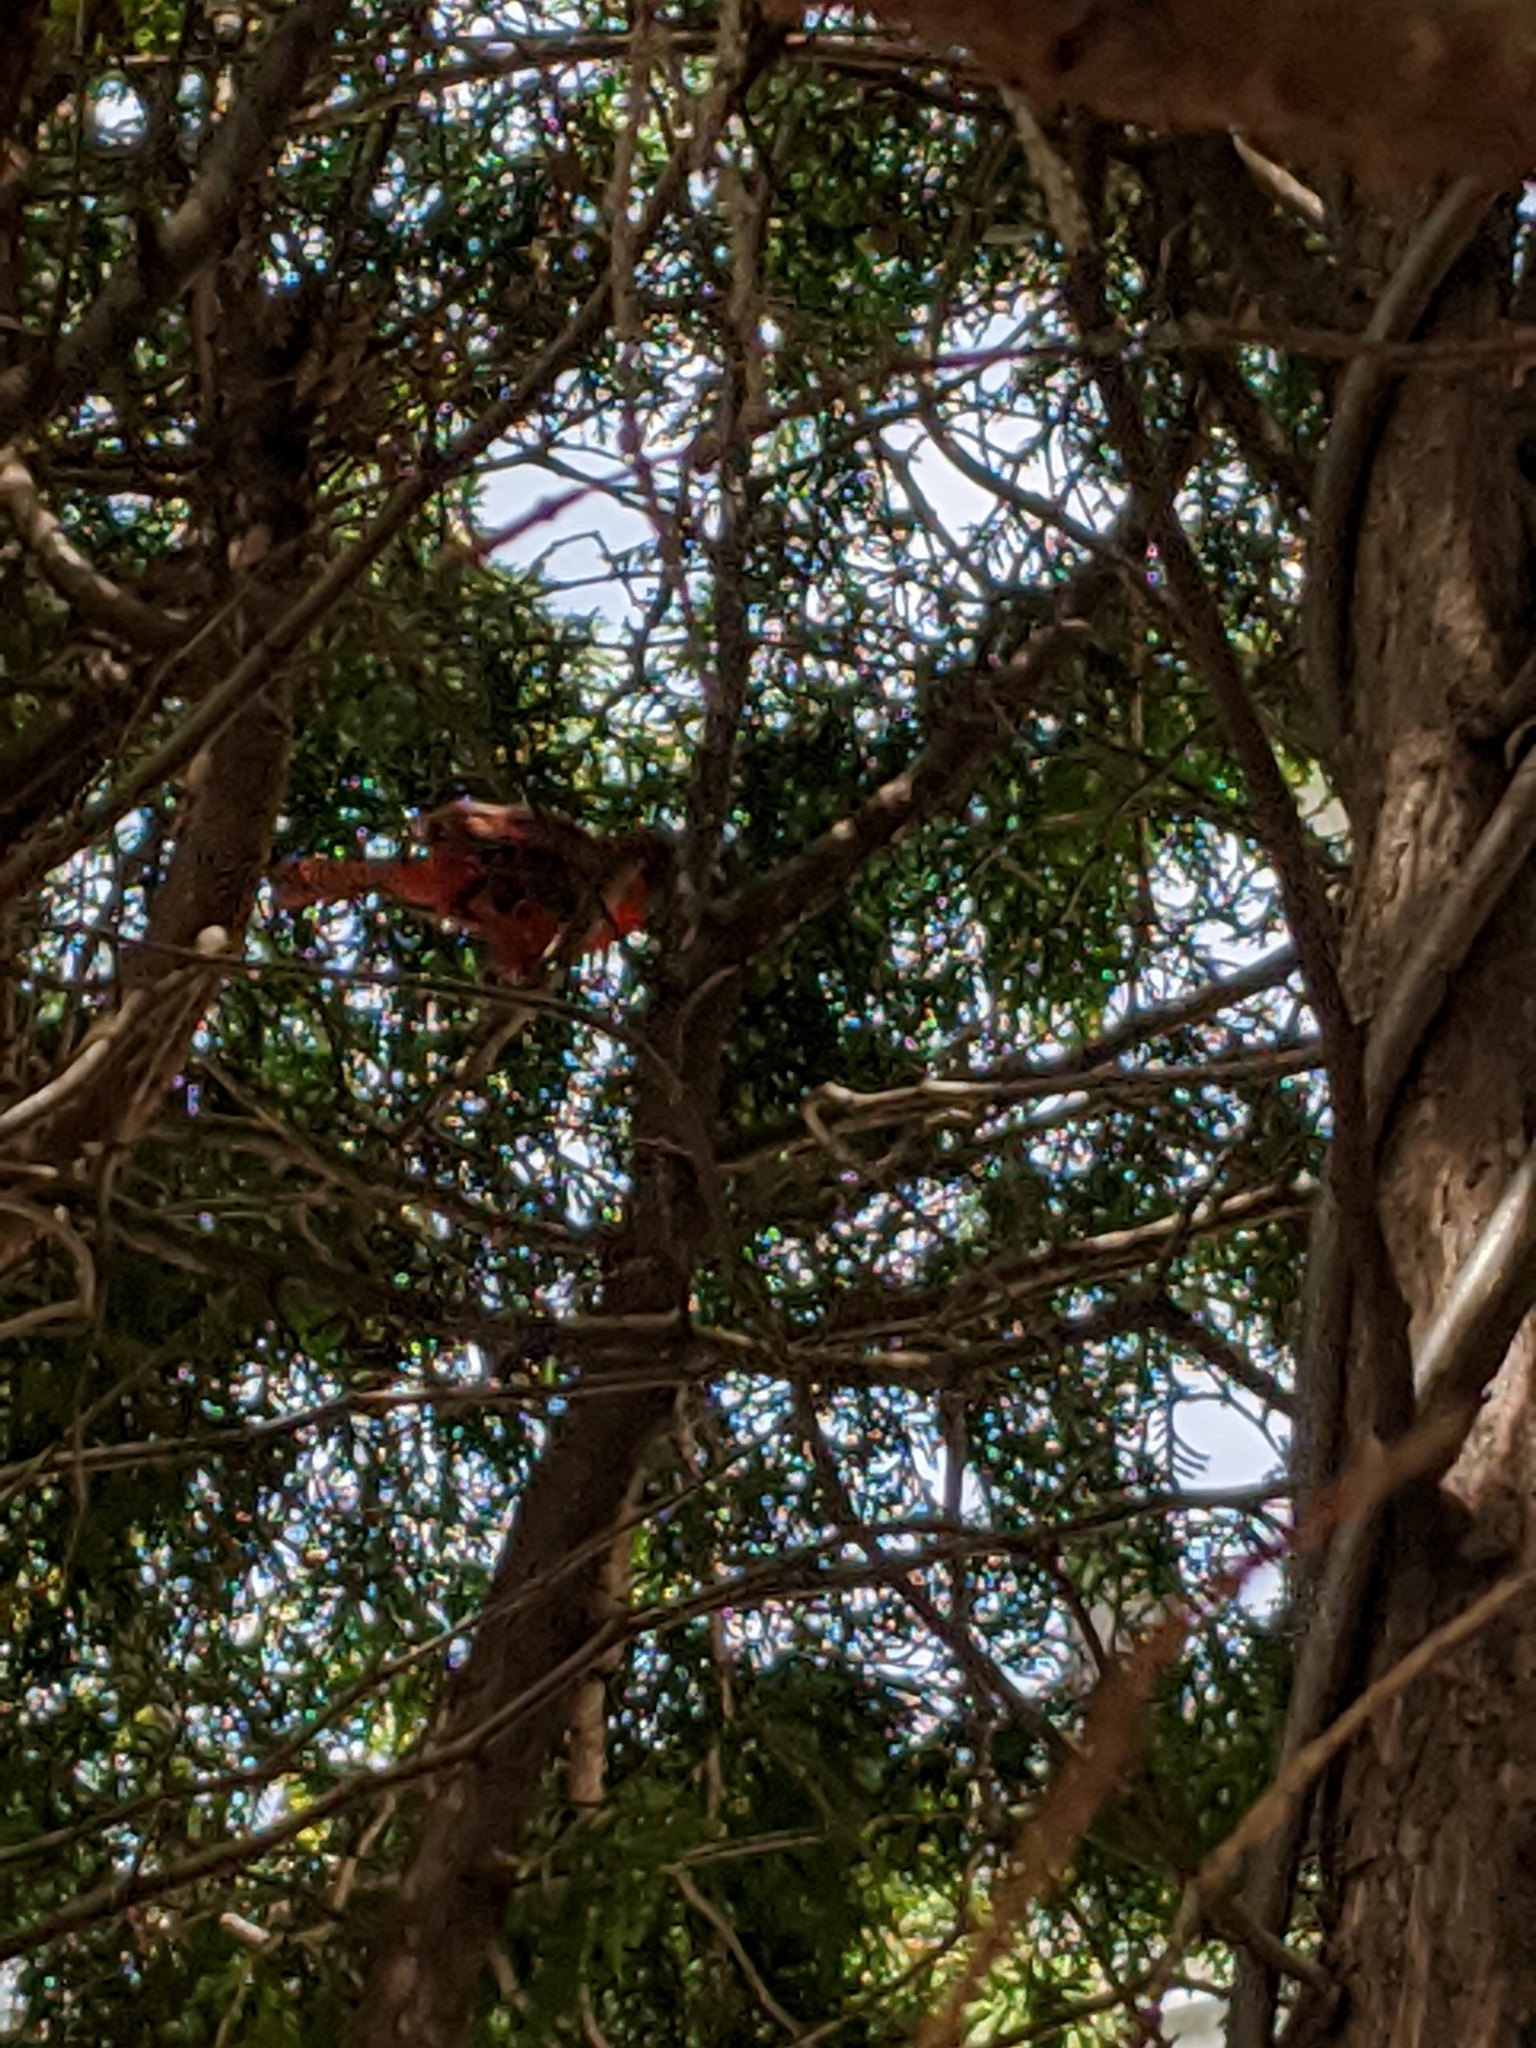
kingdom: Animalia
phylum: Chordata
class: Aves
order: Passeriformes
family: Cardinalidae
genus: Cardinalis
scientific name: Cardinalis cardinalis
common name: Northern cardinal
